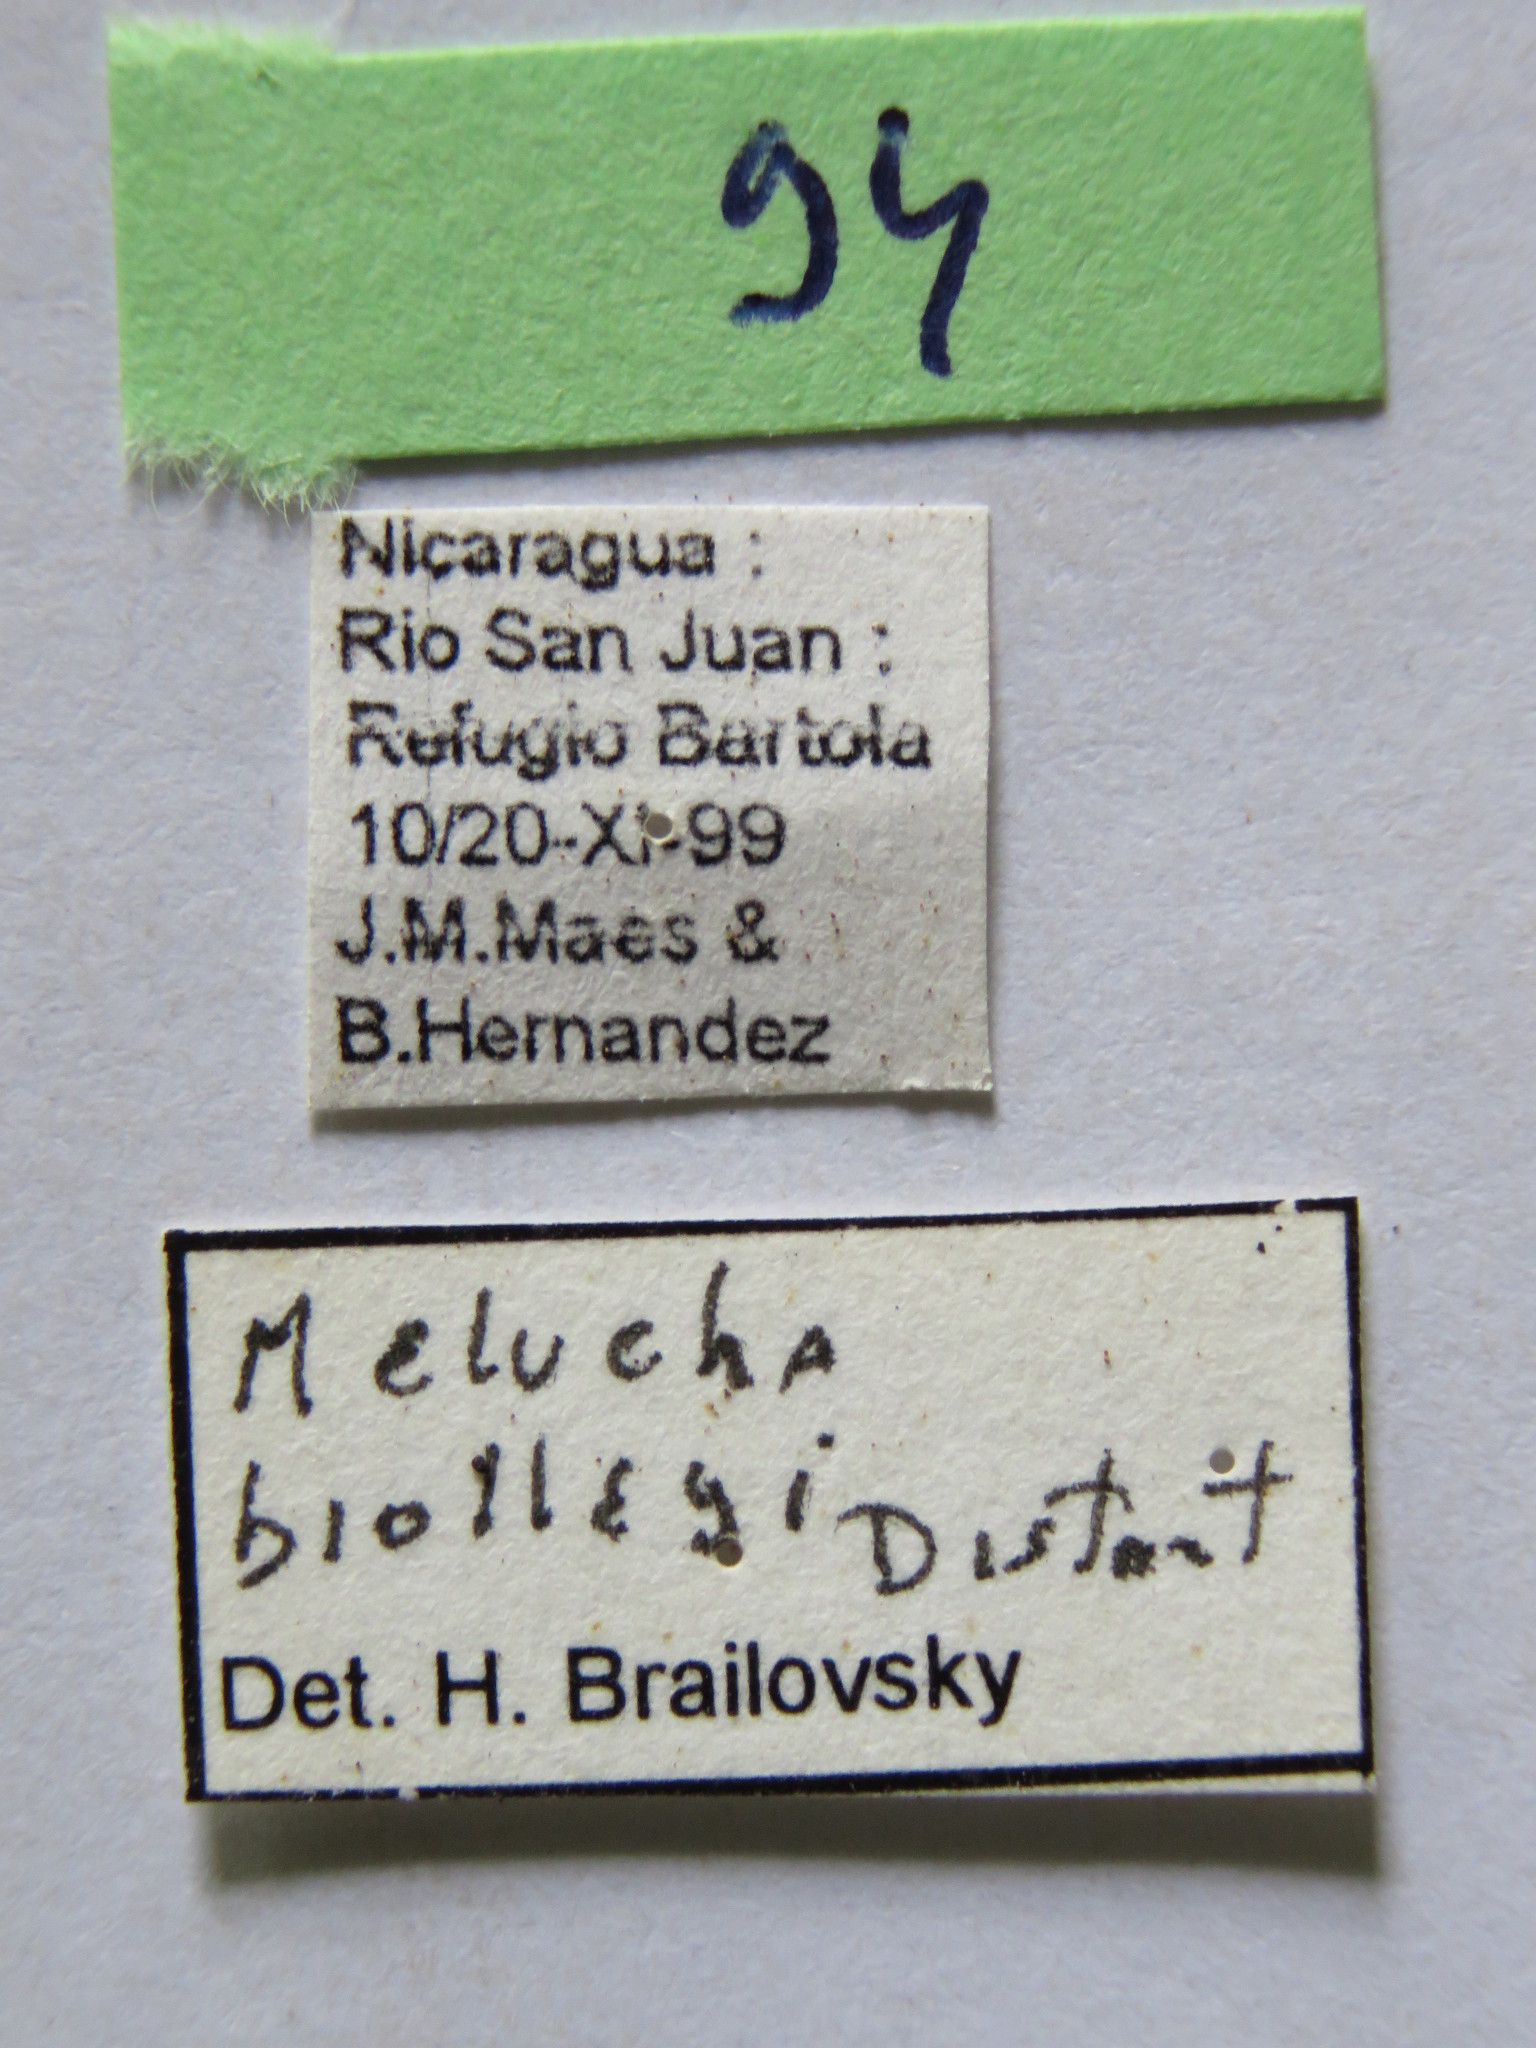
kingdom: Animalia
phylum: Arthropoda
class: Insecta
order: Hemiptera
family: Coreidae
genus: Melucha
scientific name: Melucha biolleyi
